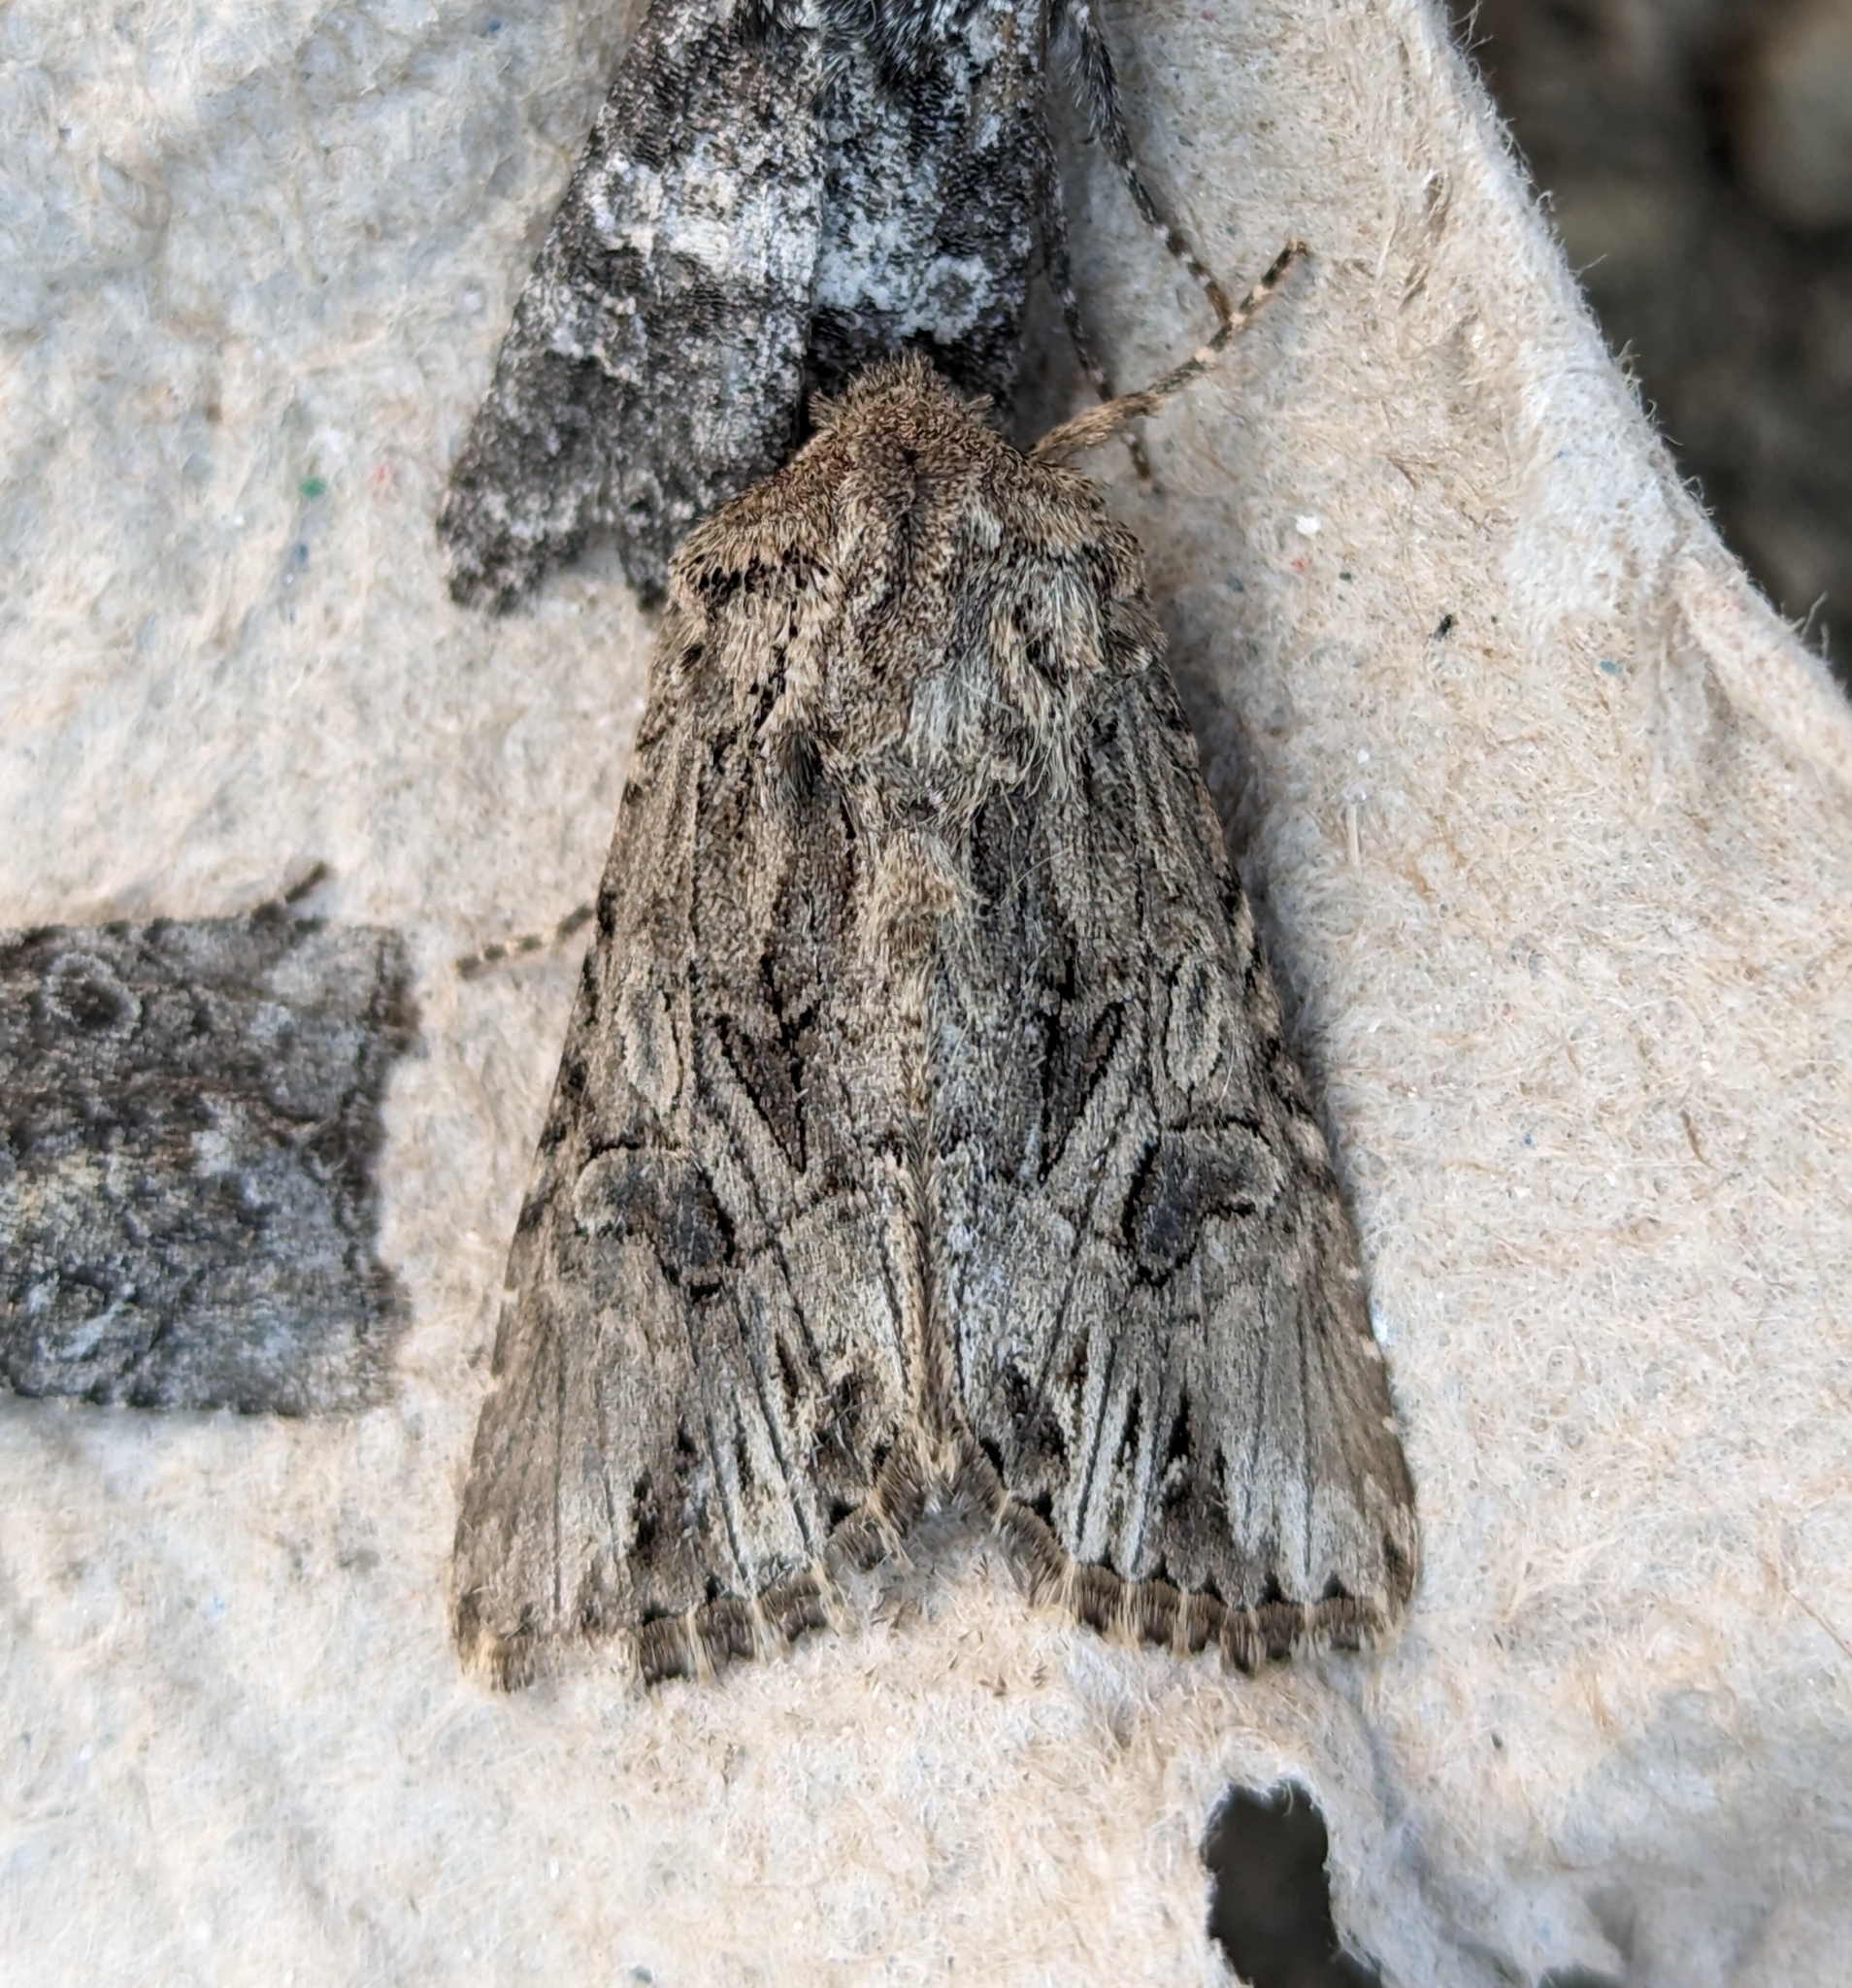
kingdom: Animalia
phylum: Arthropoda
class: Insecta
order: Lepidoptera
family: Noctuidae
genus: Anarta
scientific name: Anarta crotchii
